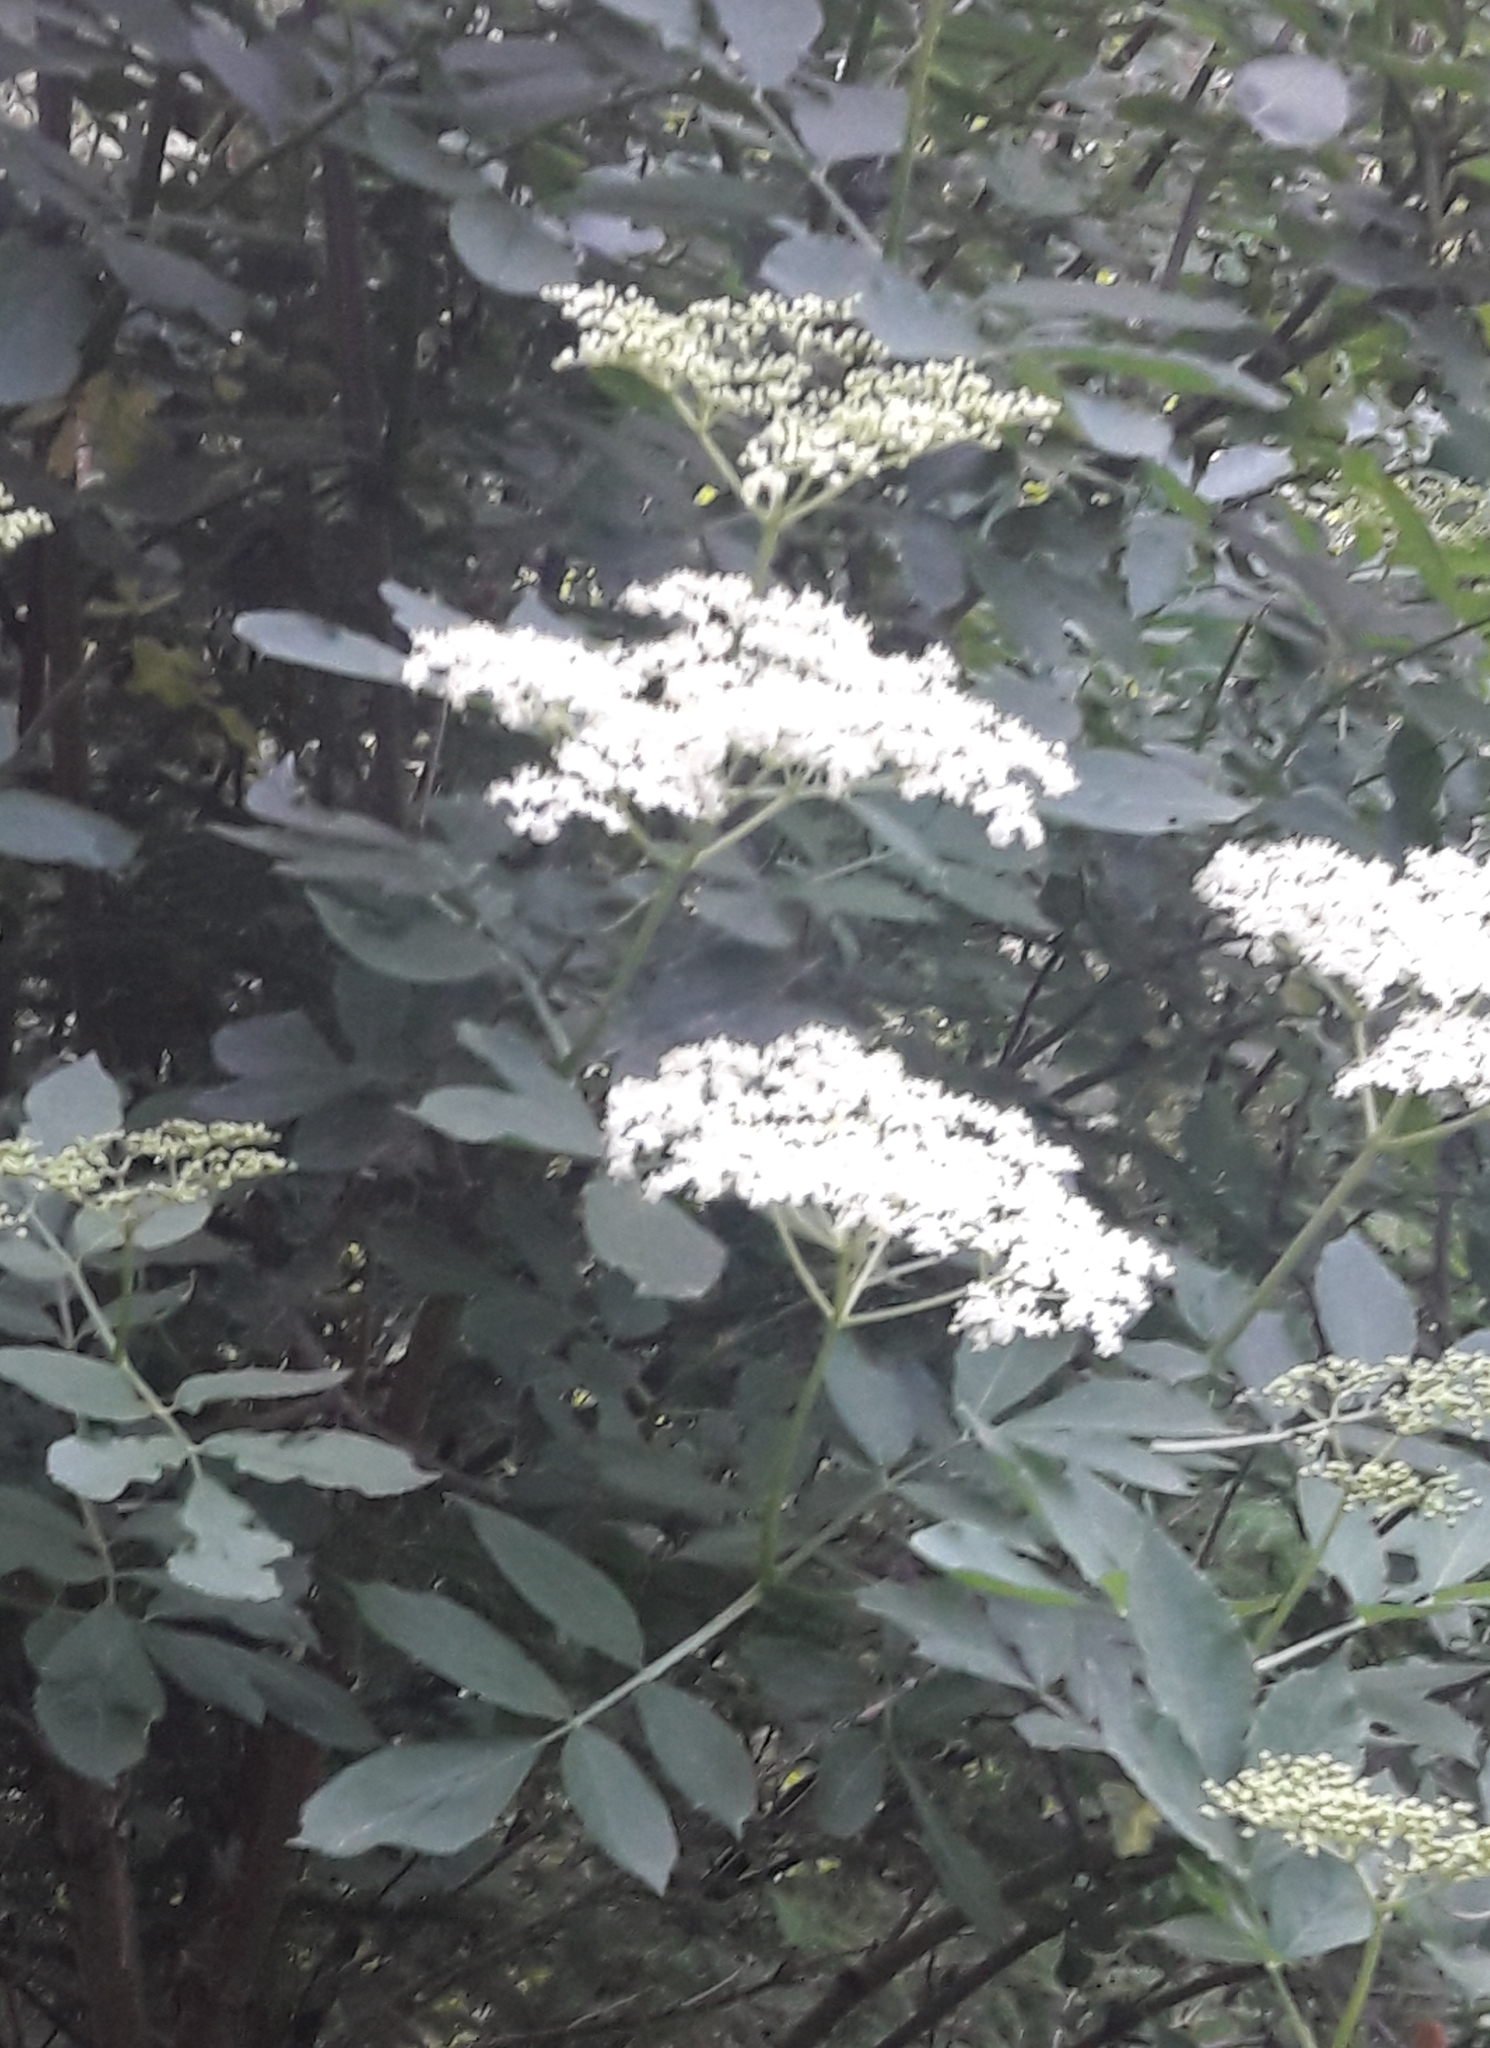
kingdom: Plantae
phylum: Tracheophyta
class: Magnoliopsida
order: Dipsacales
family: Viburnaceae
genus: Sambucus
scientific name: Sambucus nigra
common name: Elder
